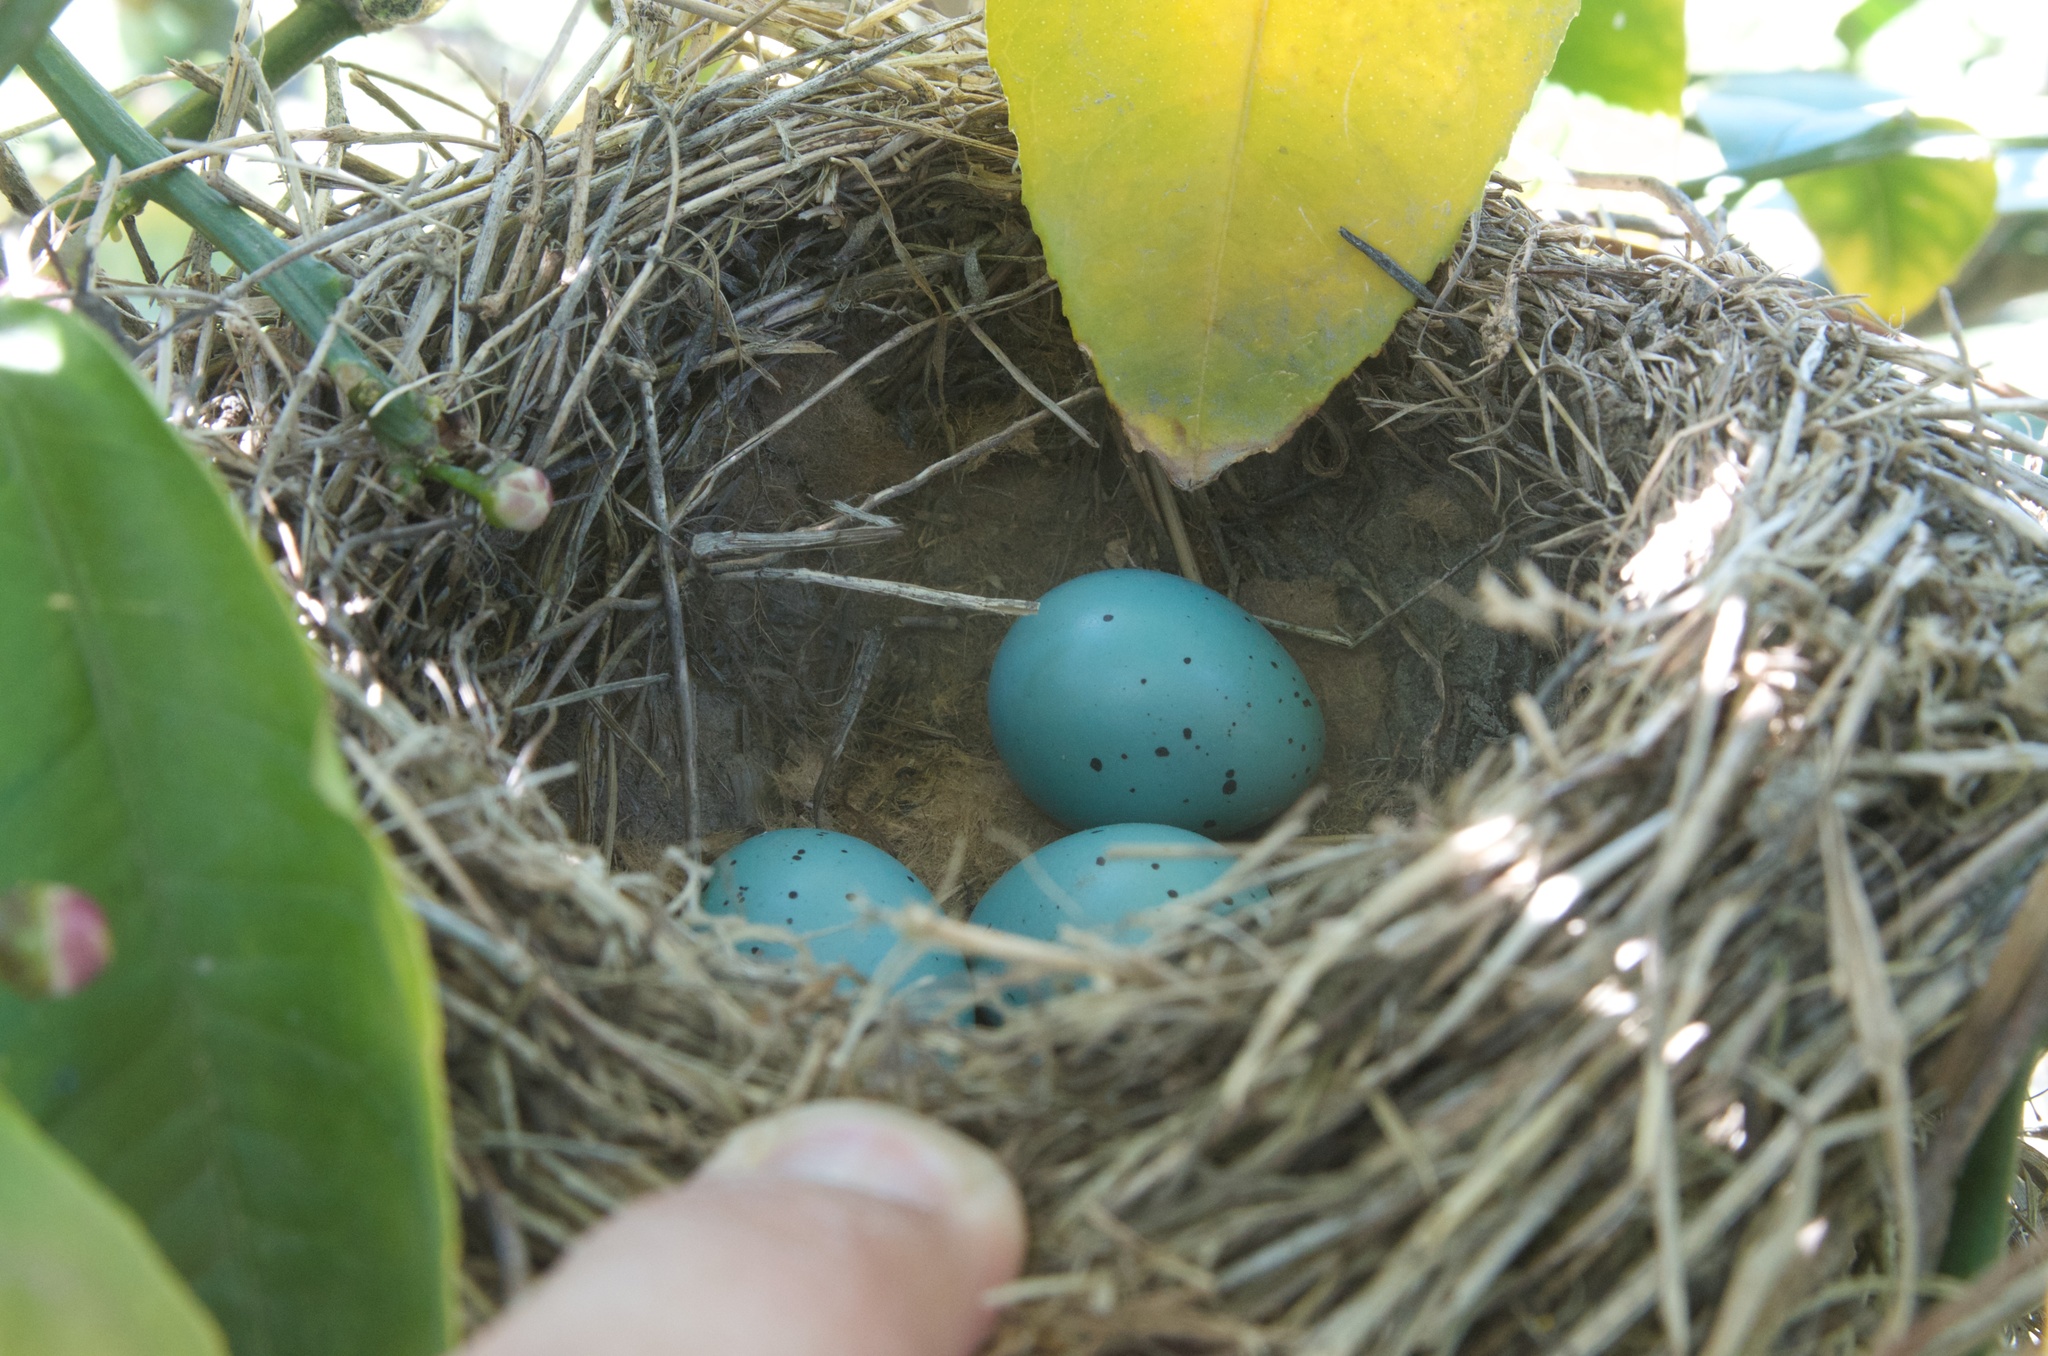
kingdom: Animalia
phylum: Chordata
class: Aves
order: Passeriformes
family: Turdidae
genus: Turdus
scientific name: Turdus philomelos
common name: Song thrush
